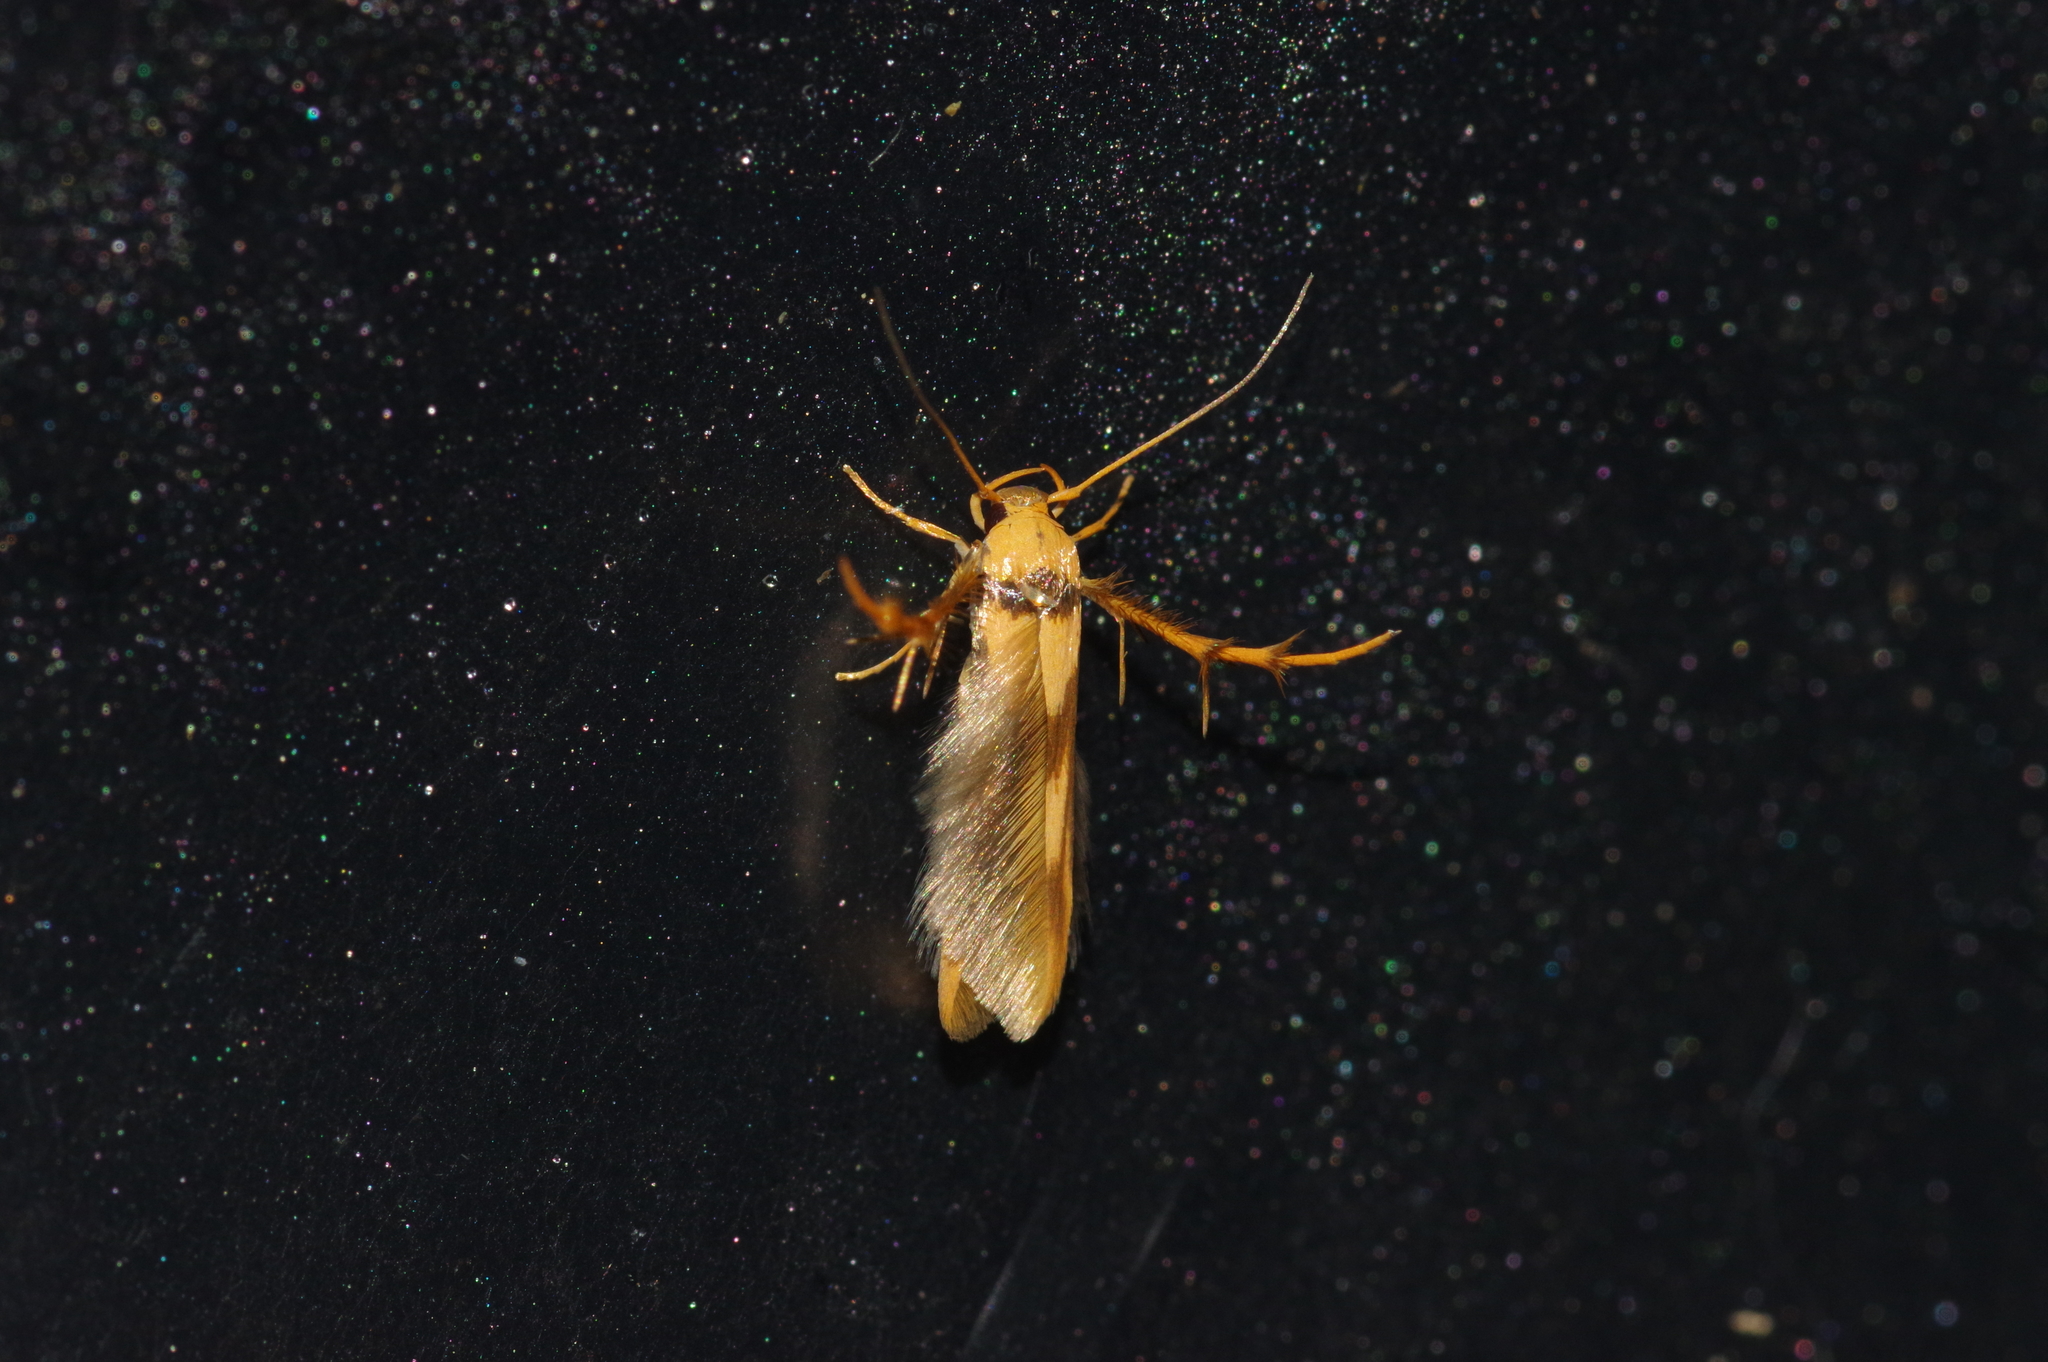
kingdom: Animalia
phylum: Arthropoda
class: Insecta
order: Lepidoptera
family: Stathmopodidae
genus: Stathmopoda
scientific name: Stathmopoda aprica
